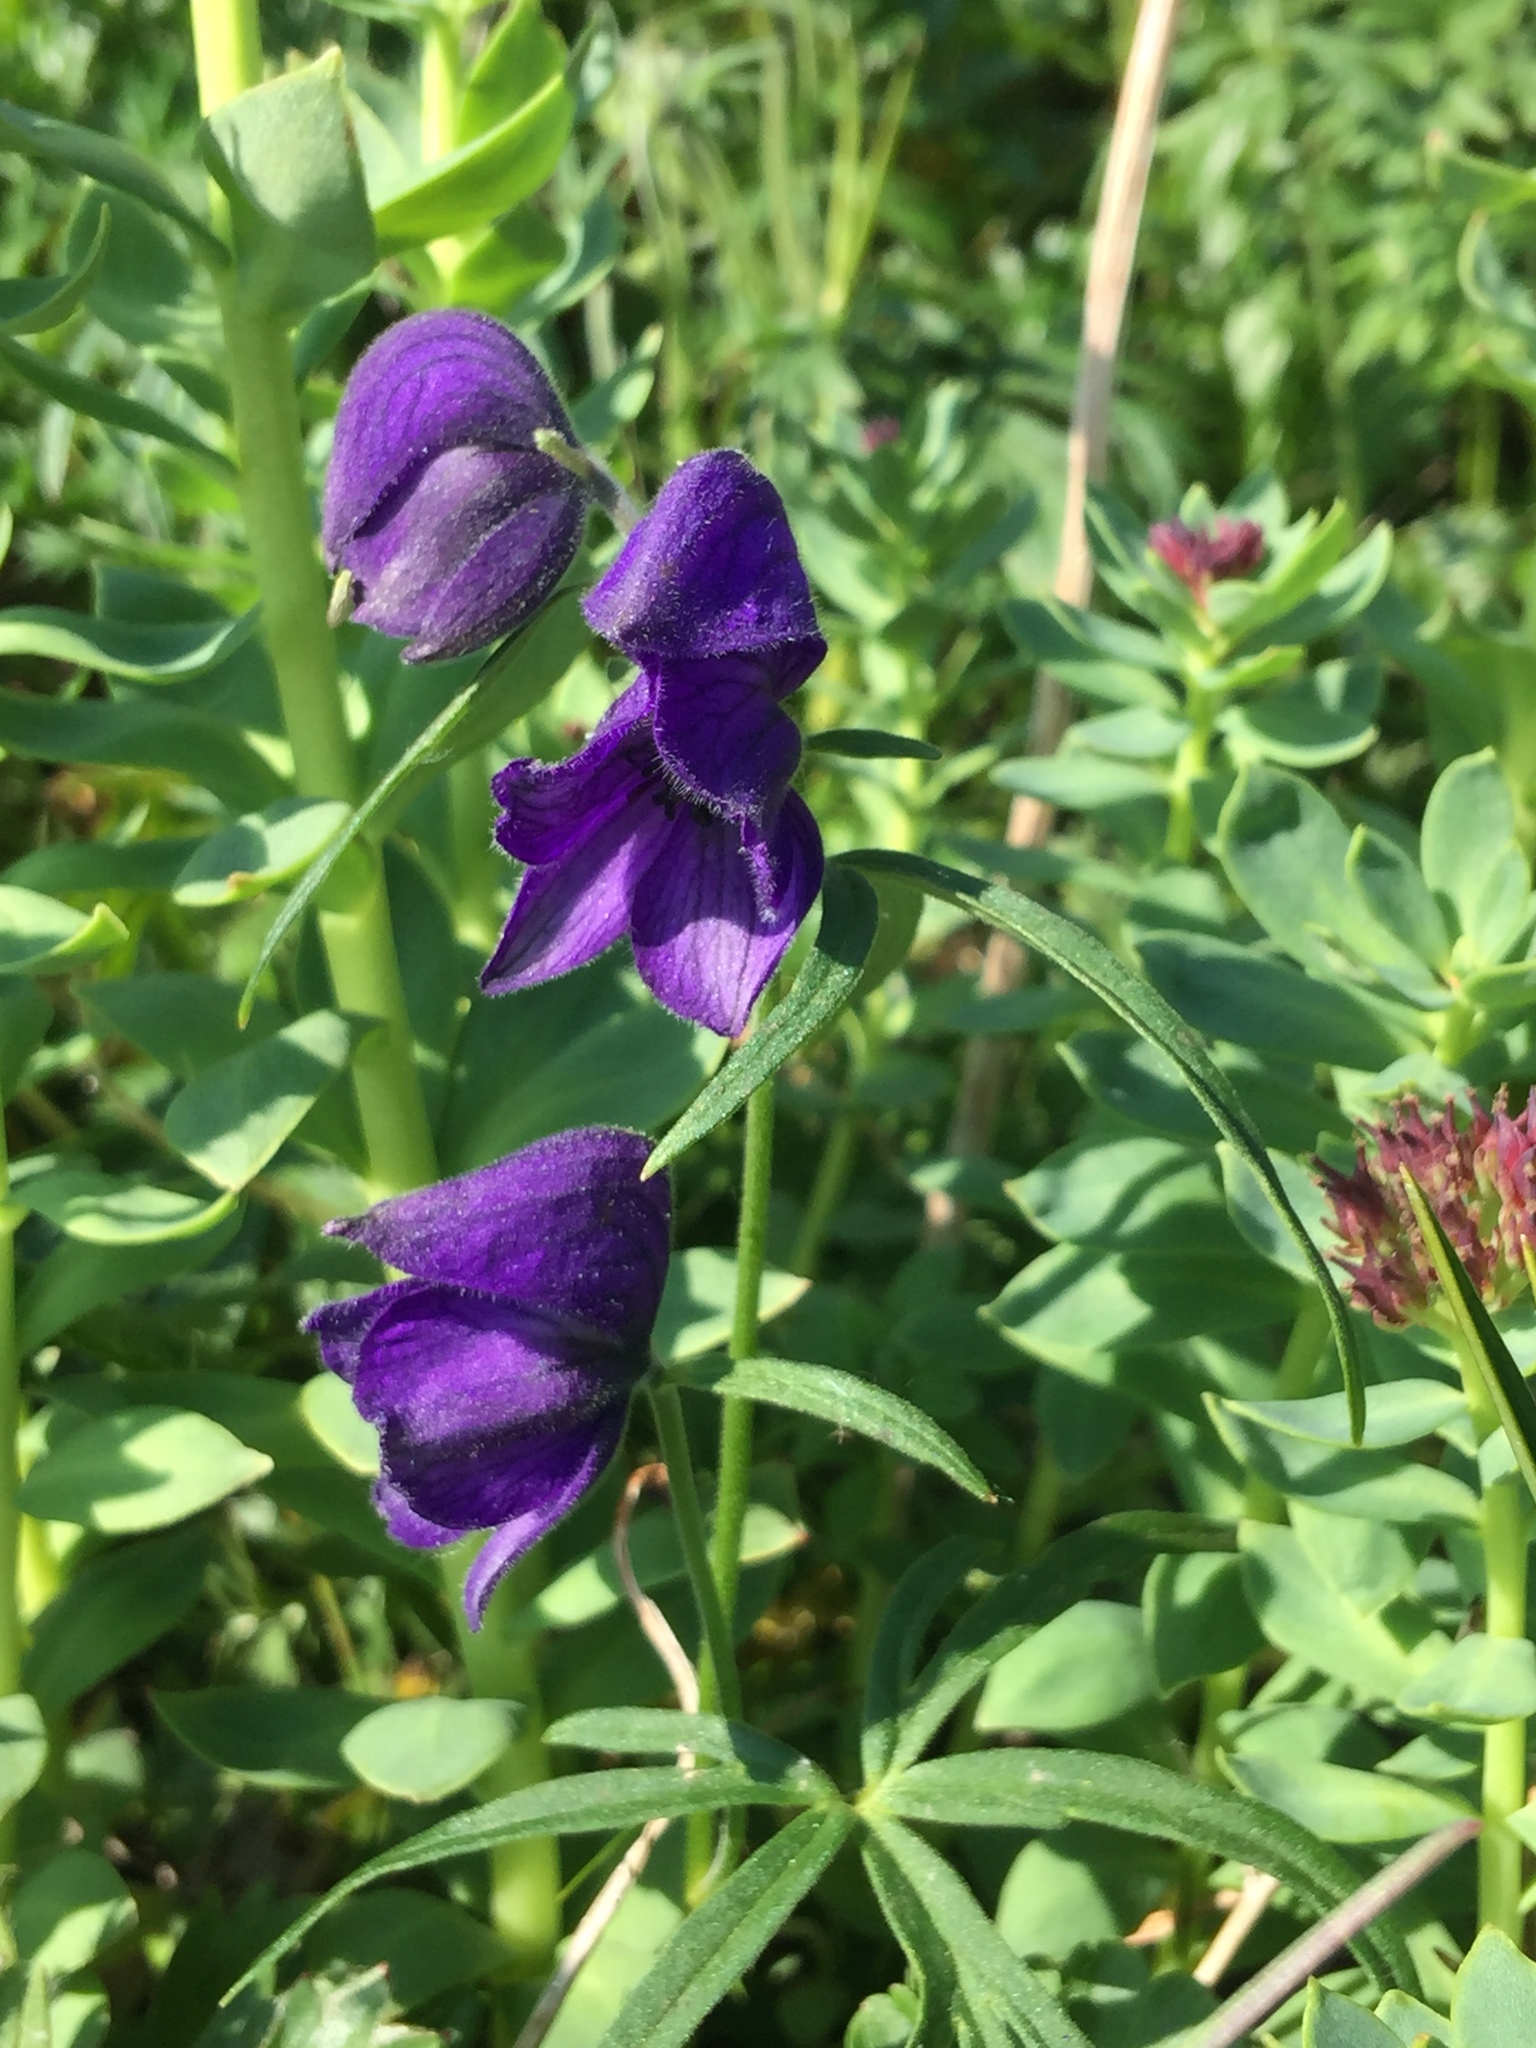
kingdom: Plantae
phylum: Tracheophyta
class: Magnoliopsida
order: Ranunculales
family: Ranunculaceae
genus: Aconitum
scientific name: Aconitum delphiniifolium
